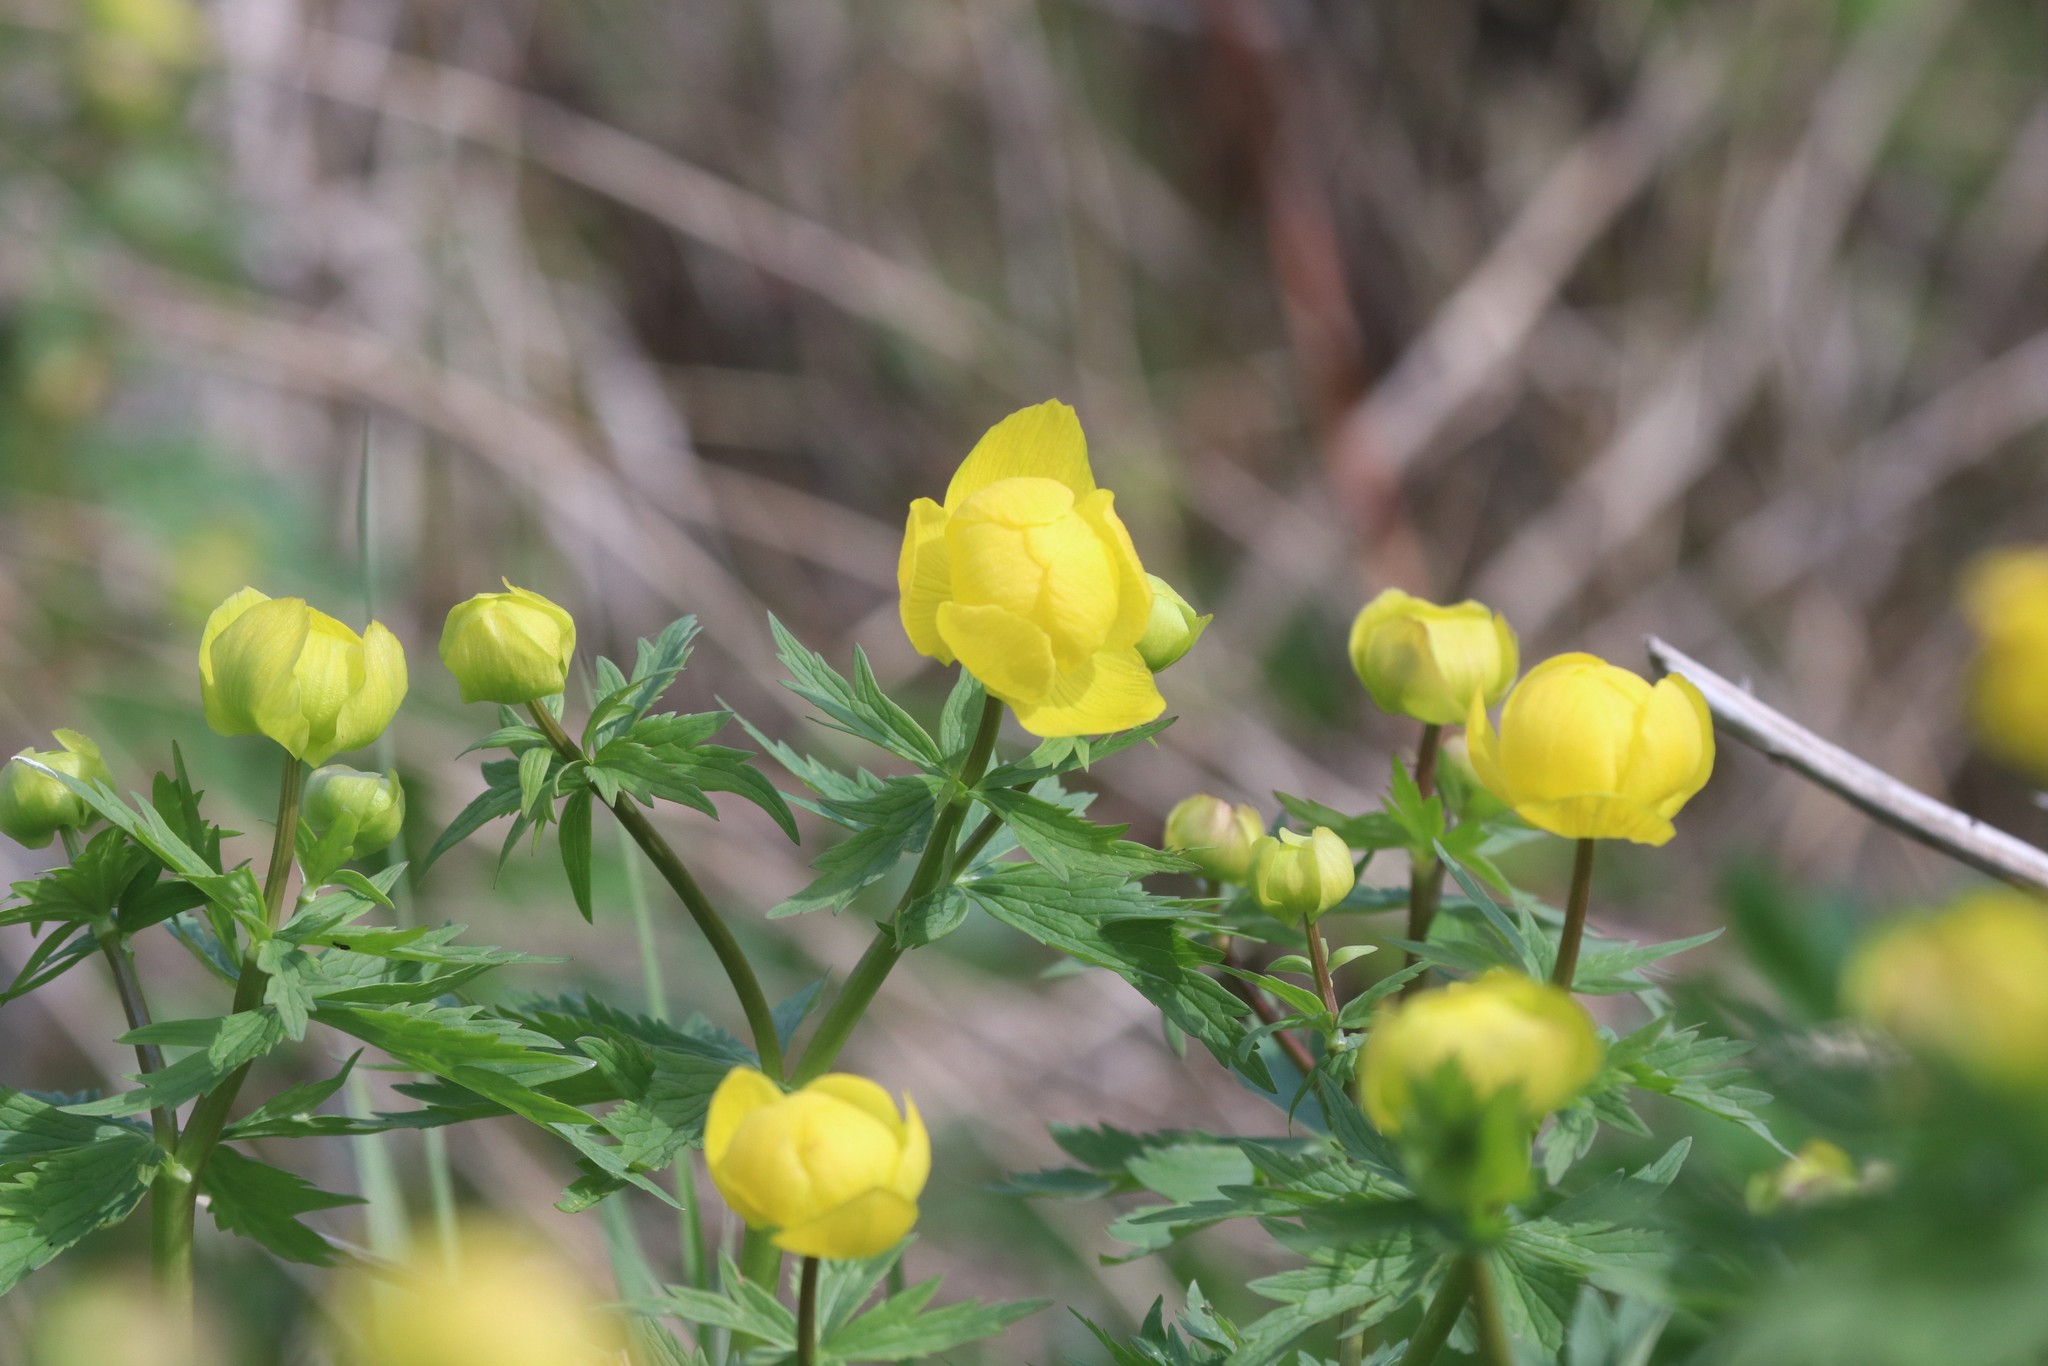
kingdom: Plantae
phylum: Tracheophyta
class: Magnoliopsida
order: Ranunculales
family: Ranunculaceae
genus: Trollius
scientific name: Trollius europaeus
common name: European globeflower
